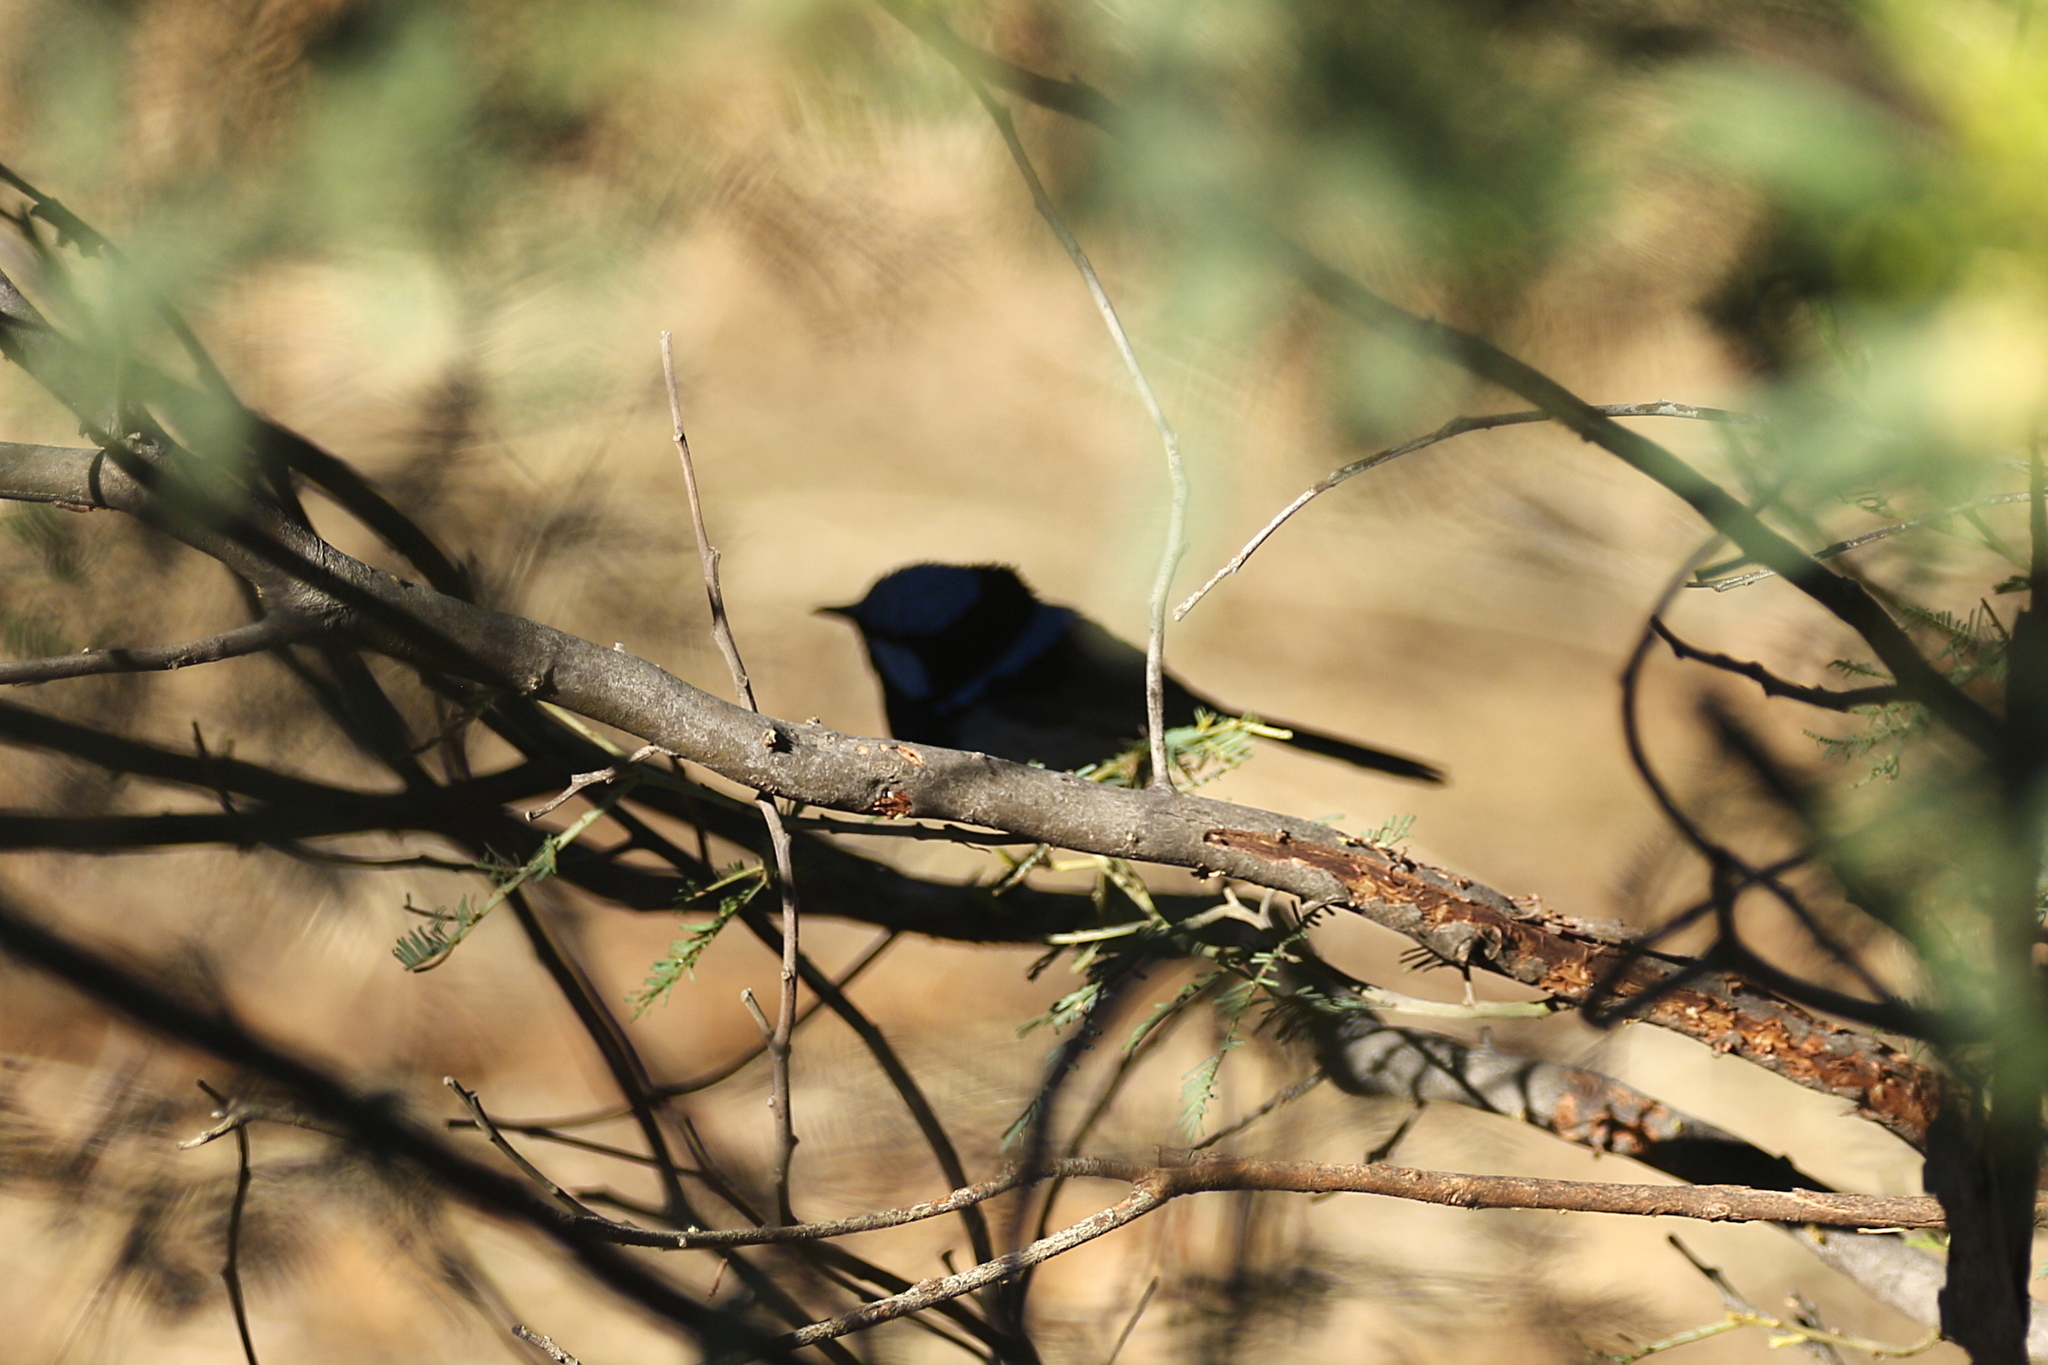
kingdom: Animalia
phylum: Chordata
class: Aves
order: Passeriformes
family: Maluridae
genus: Malurus
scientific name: Malurus cyaneus
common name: Superb fairywren
